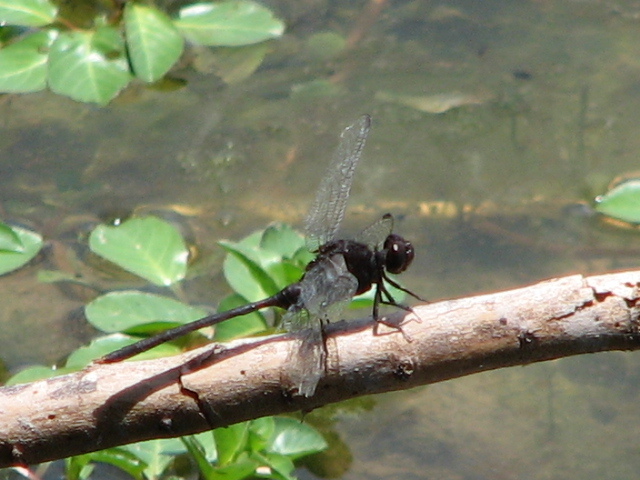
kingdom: Animalia
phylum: Arthropoda
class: Insecta
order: Odonata
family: Libellulidae
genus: Erythemis
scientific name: Erythemis plebeja
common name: Pin-tailed pondhawk
